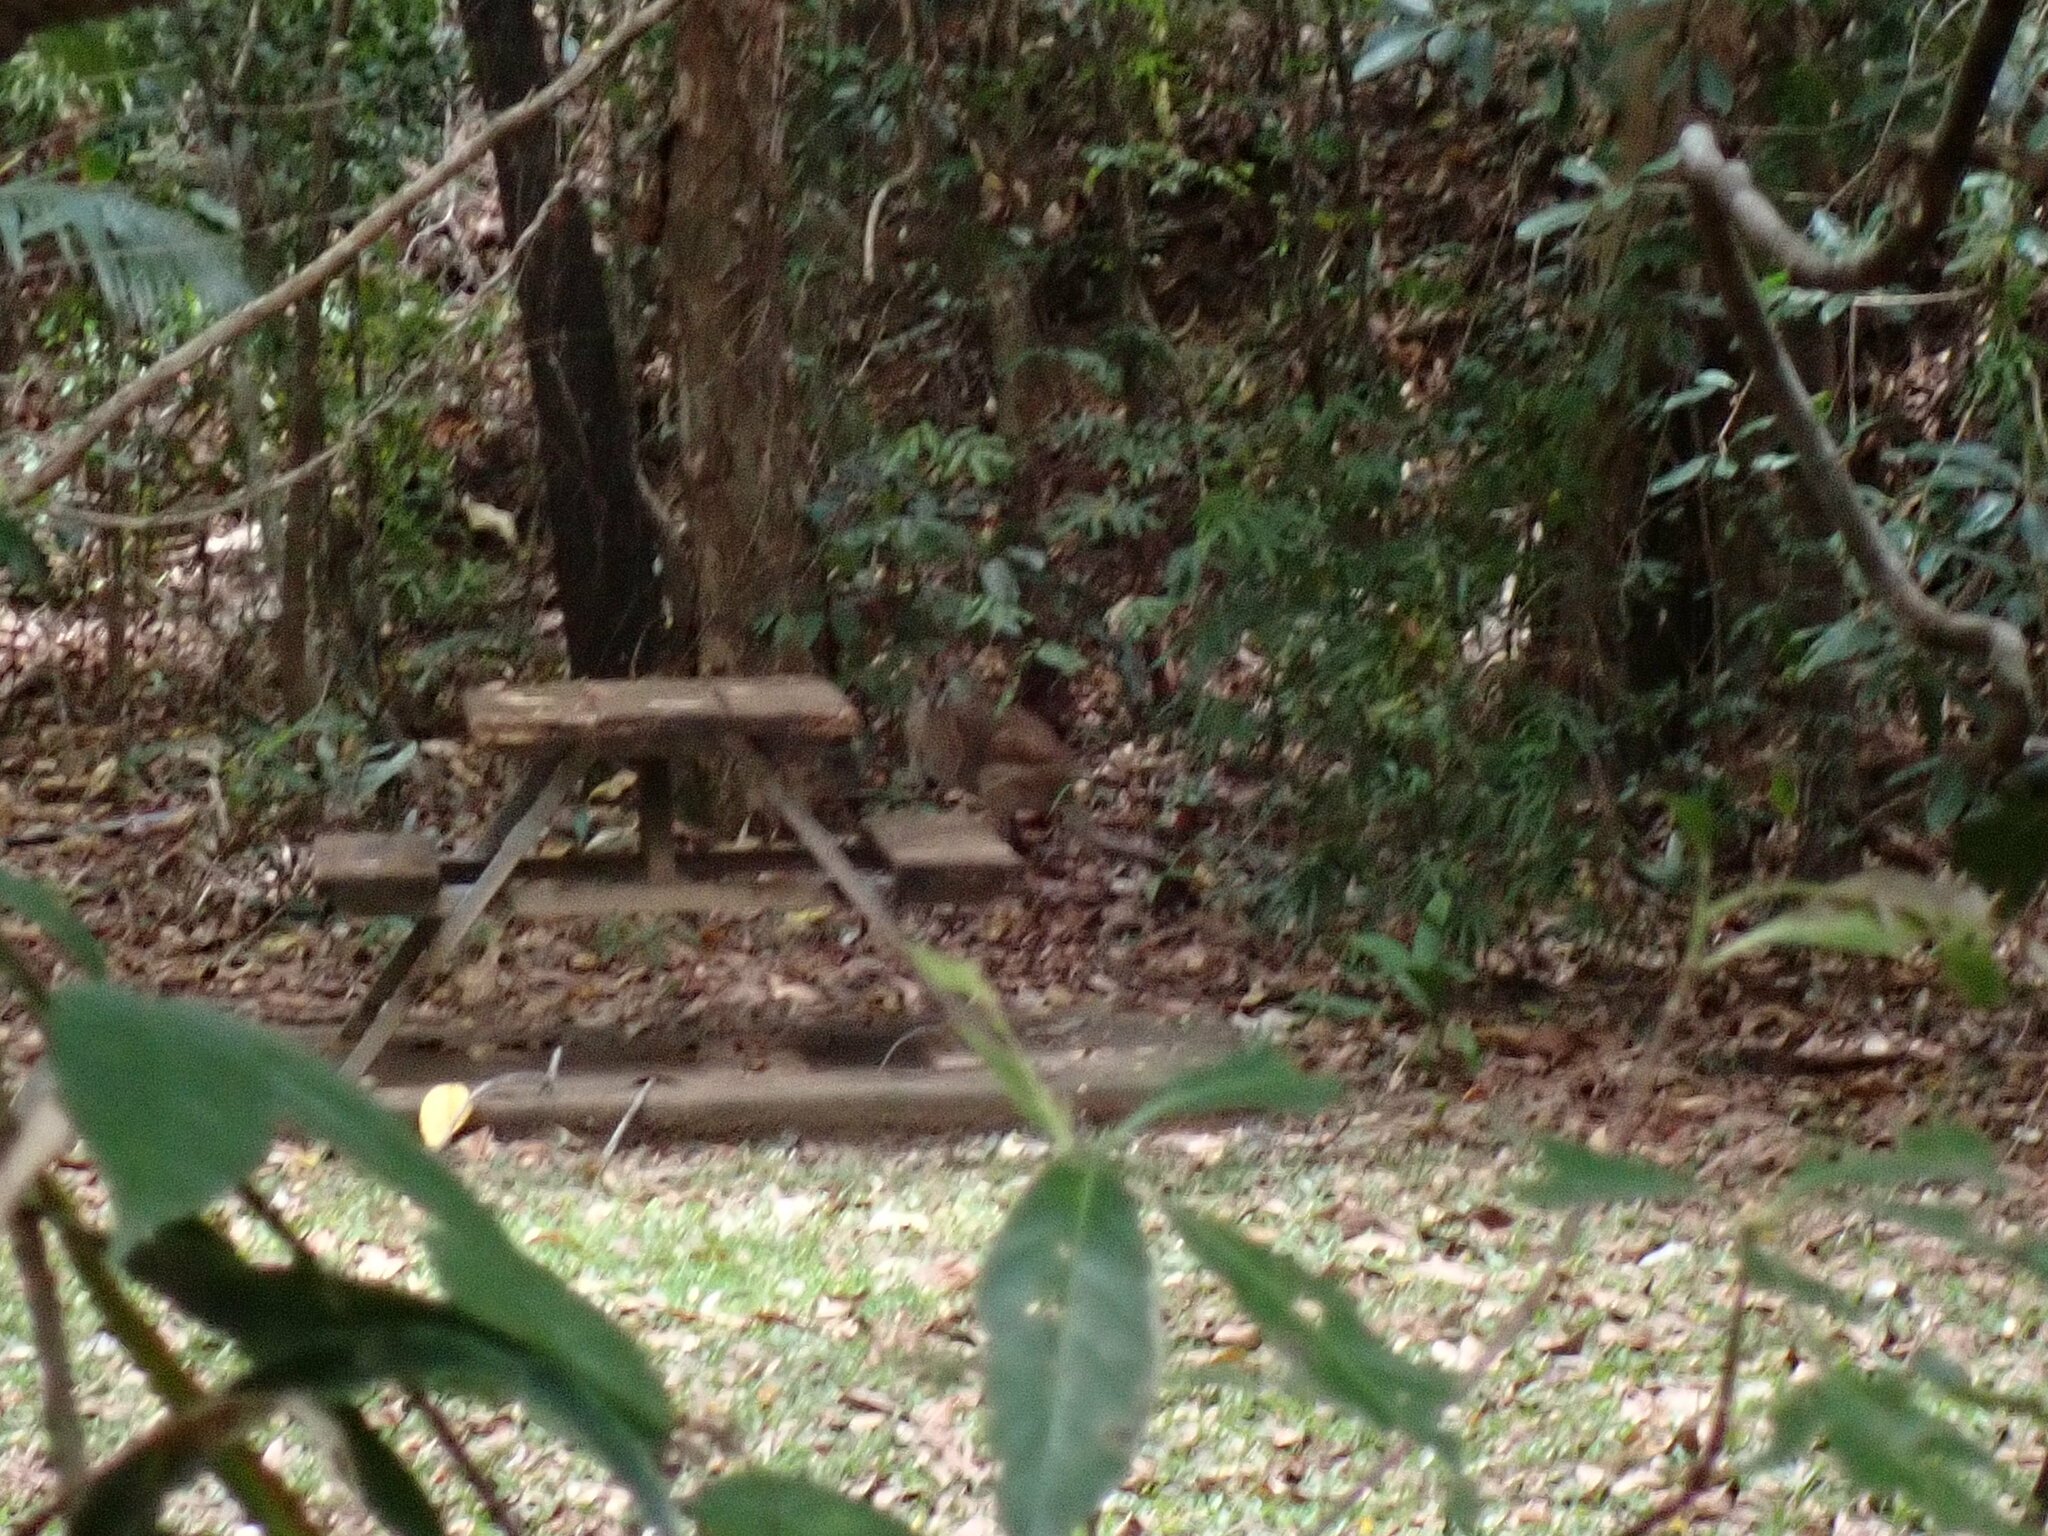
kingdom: Animalia
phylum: Chordata
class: Mammalia
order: Diprotodontia
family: Macropodidae
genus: Macropus
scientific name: Macropus agilis
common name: Agile wallaby
